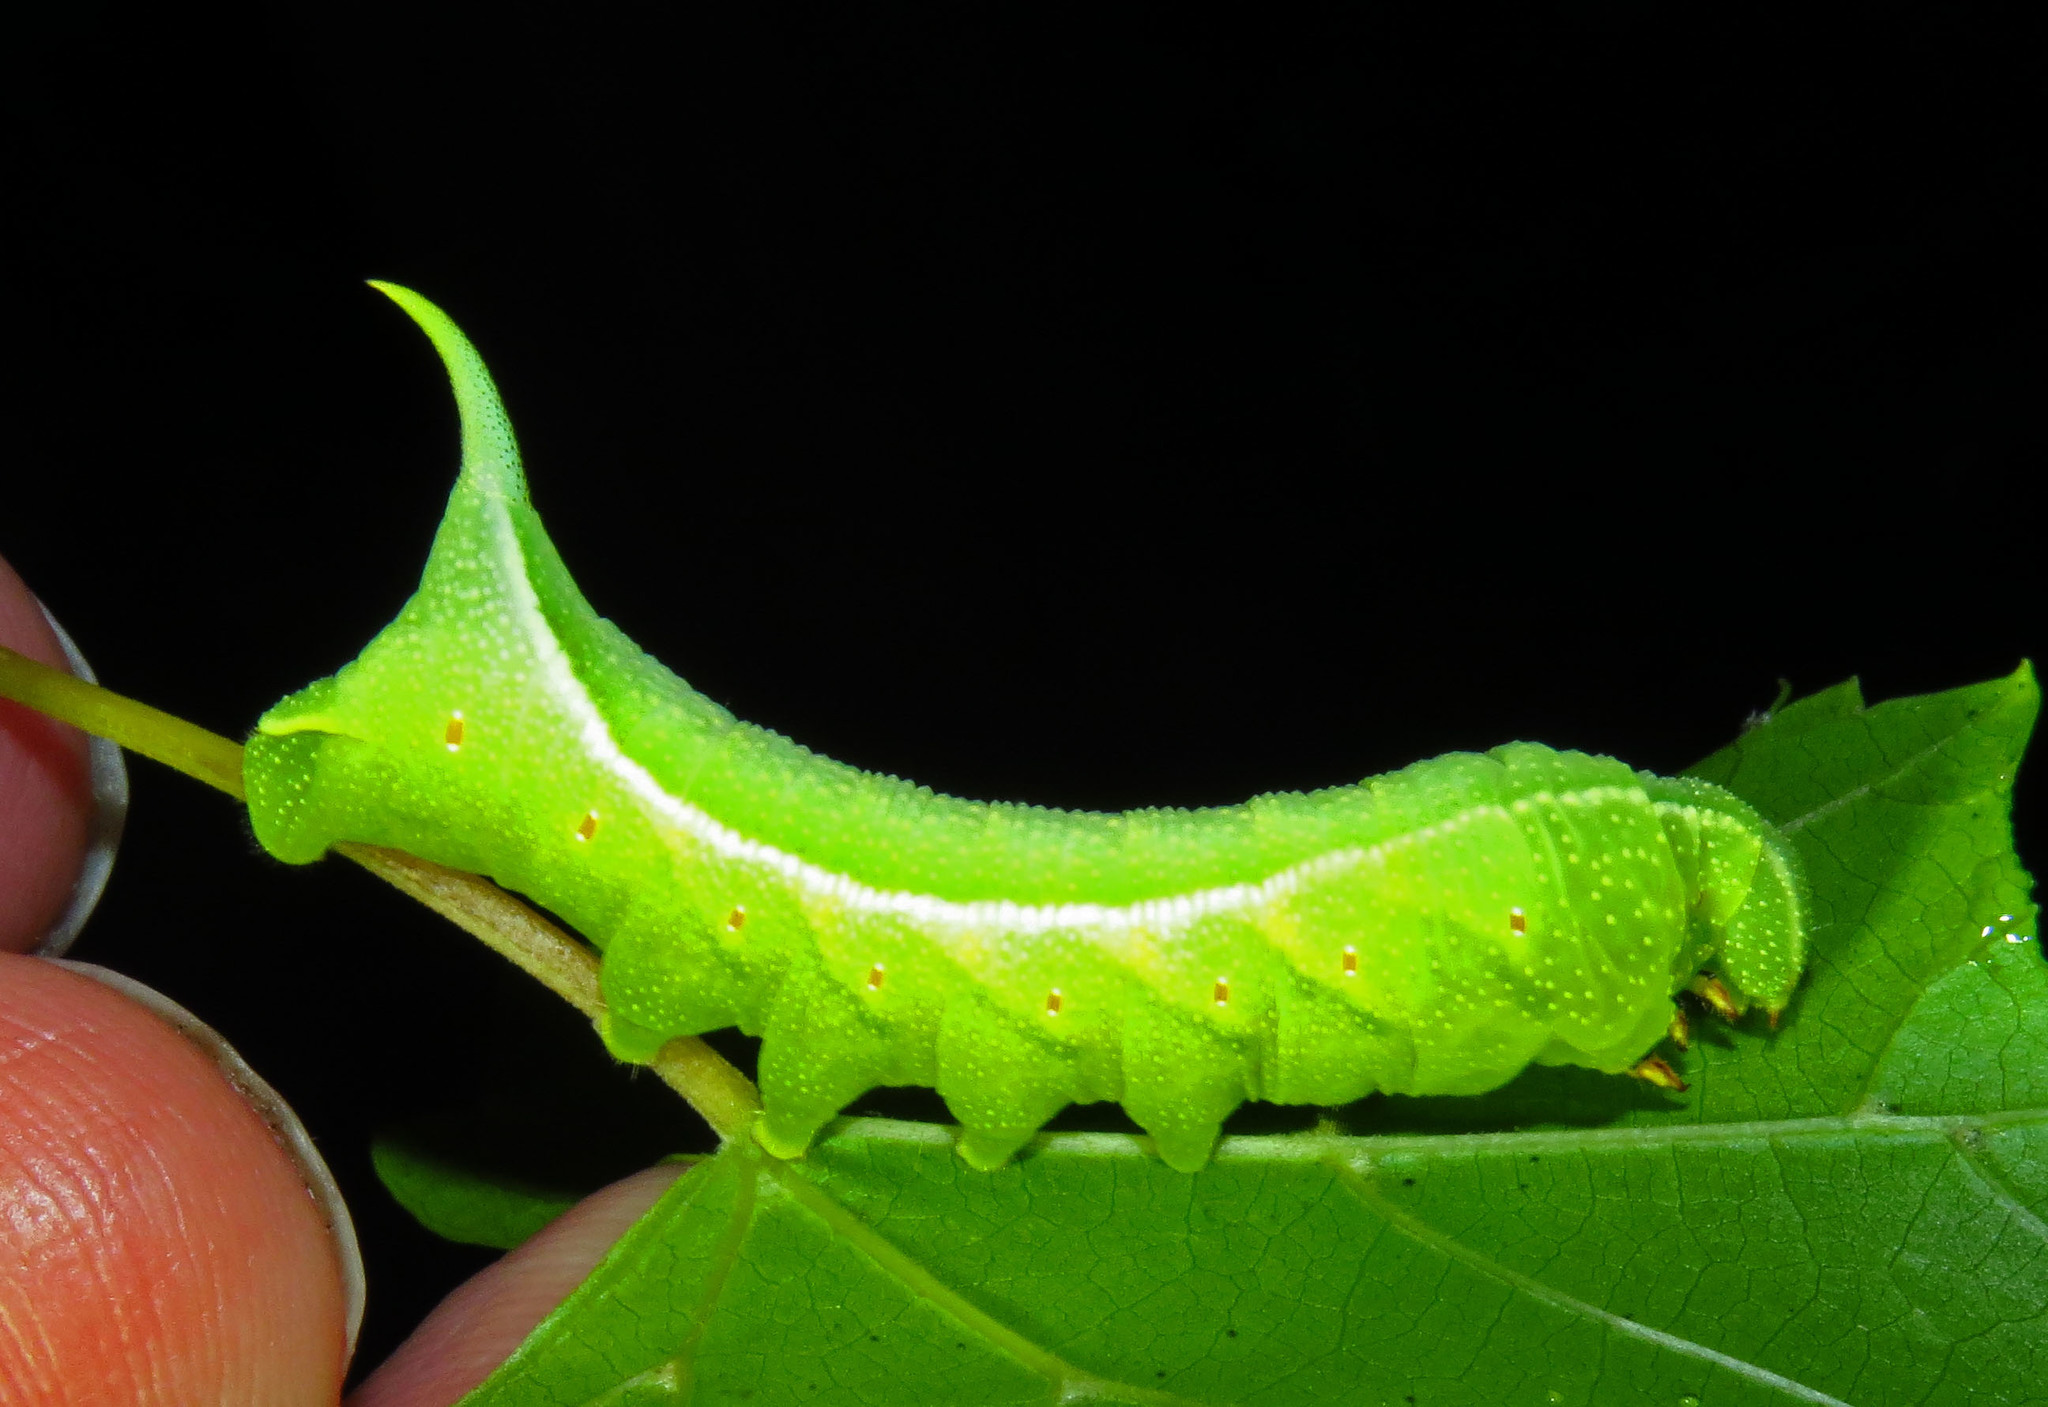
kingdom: Animalia
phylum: Arthropoda
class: Insecta
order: Lepidoptera
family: Sphingidae
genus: Darapsa
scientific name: Darapsa myron
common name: Hog sphinx
